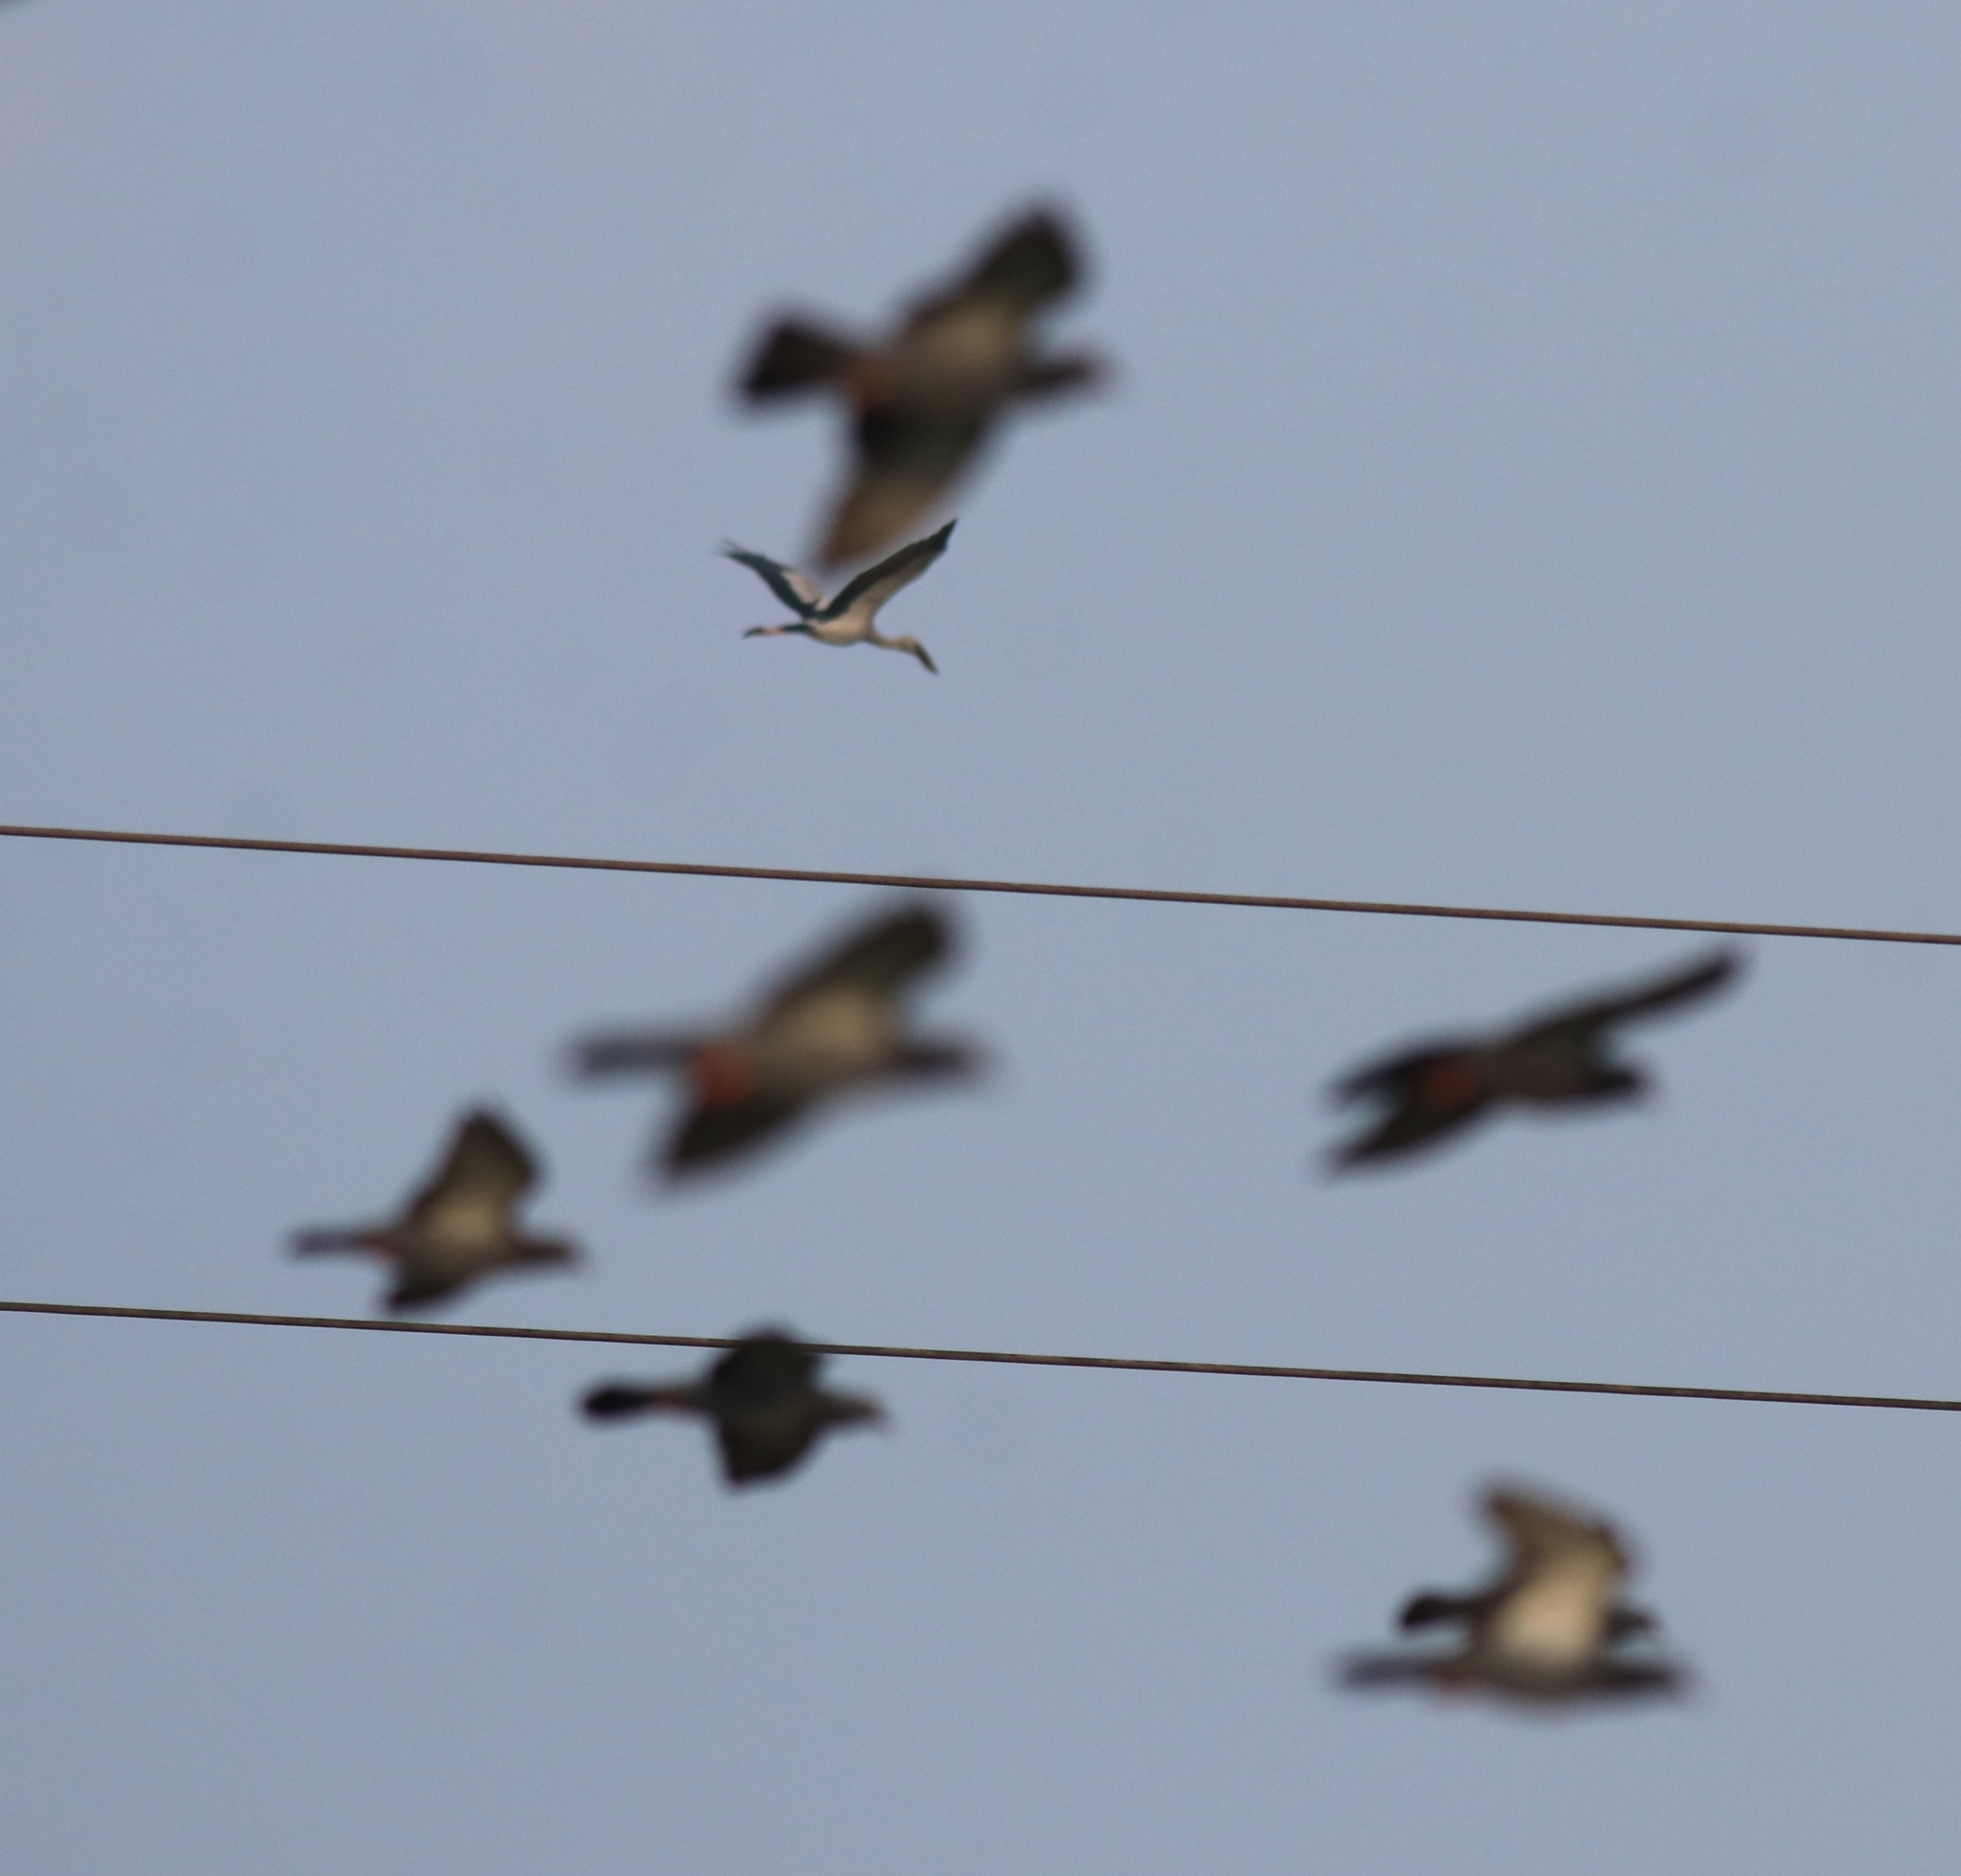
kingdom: Animalia
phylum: Chordata
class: Aves
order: Ciconiiformes
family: Ciconiidae
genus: Anastomus
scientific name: Anastomus oscitans
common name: Asian openbill
